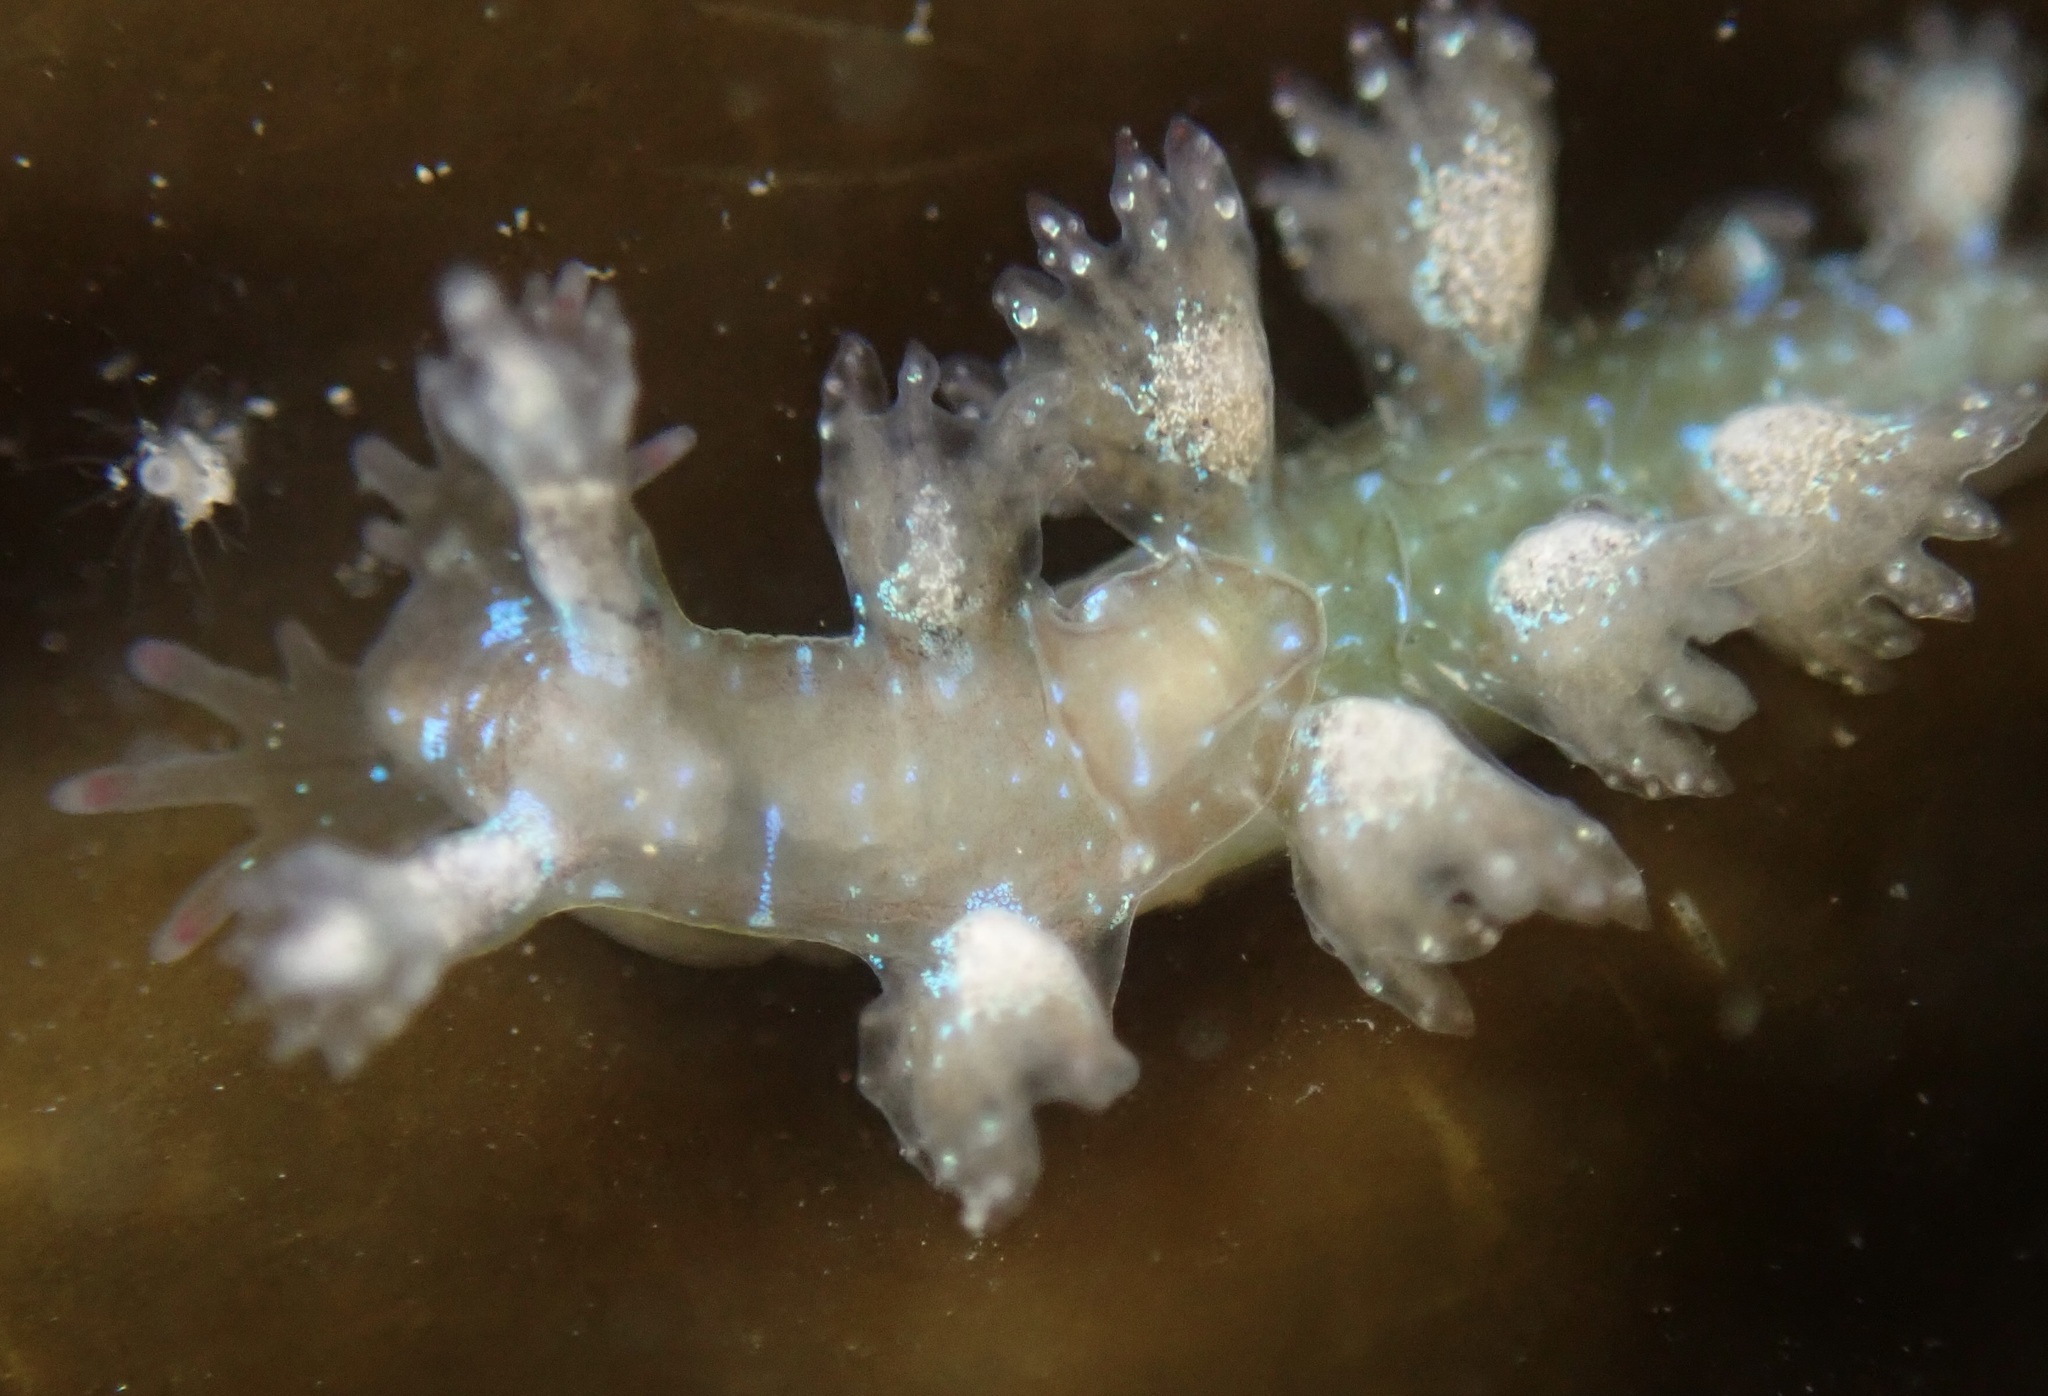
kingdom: Animalia
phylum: Mollusca
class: Gastropoda
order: Nudibranchia
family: Hancockiidae
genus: Hancockia
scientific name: Hancockia californica
